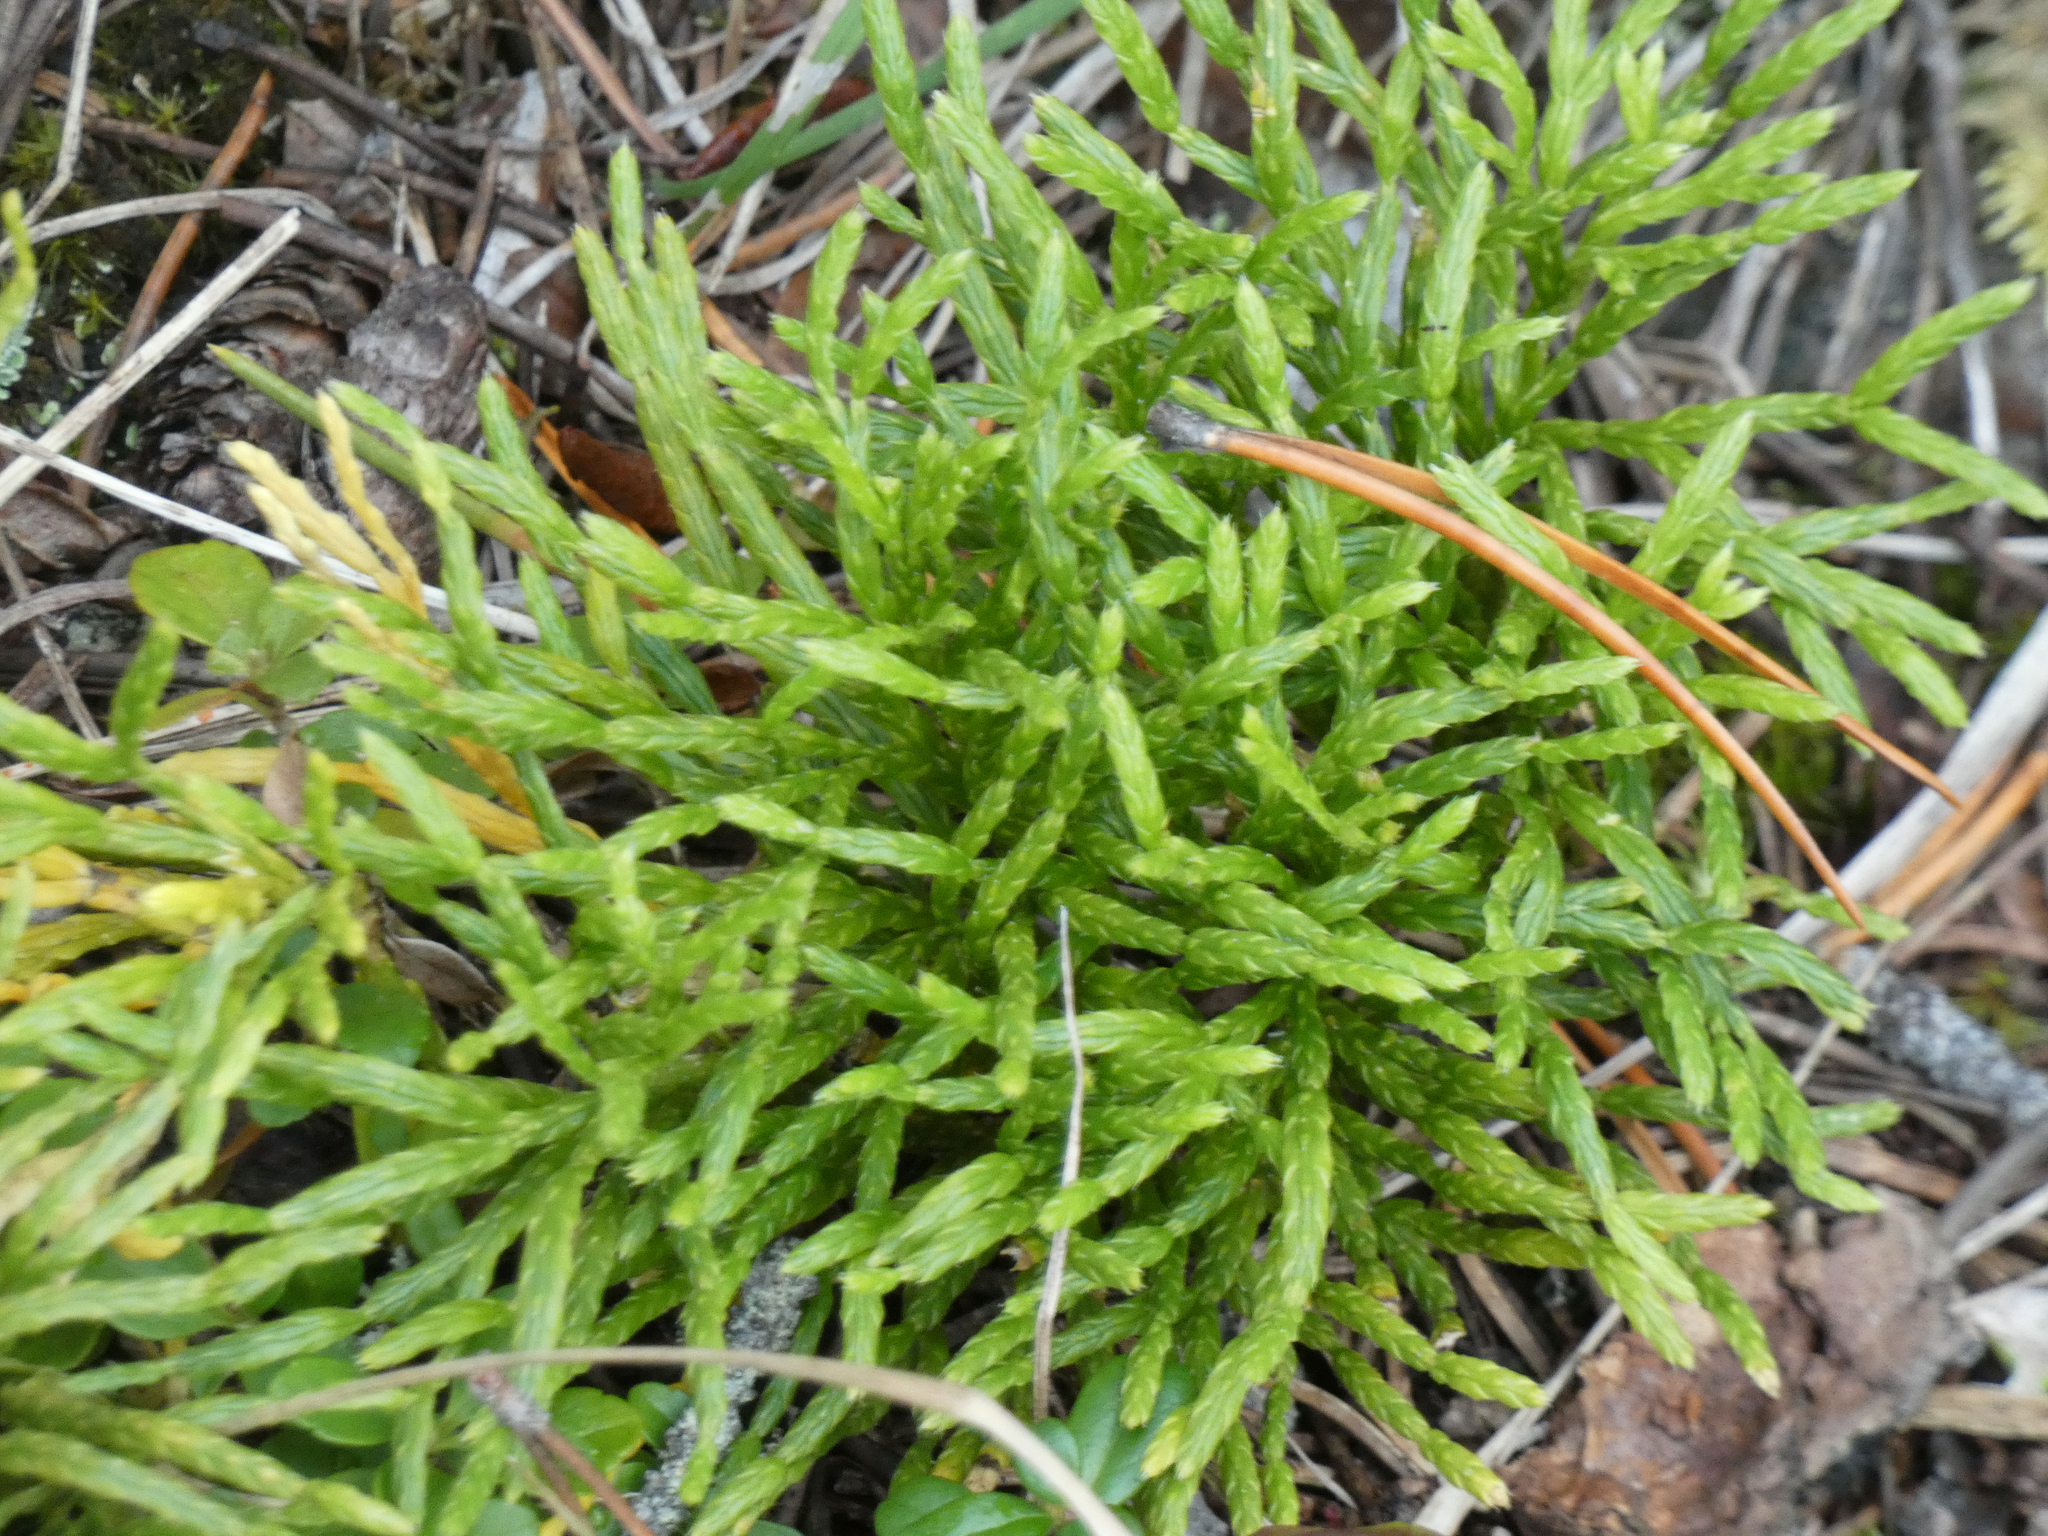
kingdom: Plantae
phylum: Tracheophyta
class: Lycopodiopsida
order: Lycopodiales
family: Lycopodiaceae
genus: Diphasiastrum
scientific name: Diphasiastrum complanatum
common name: Northern running-pine
